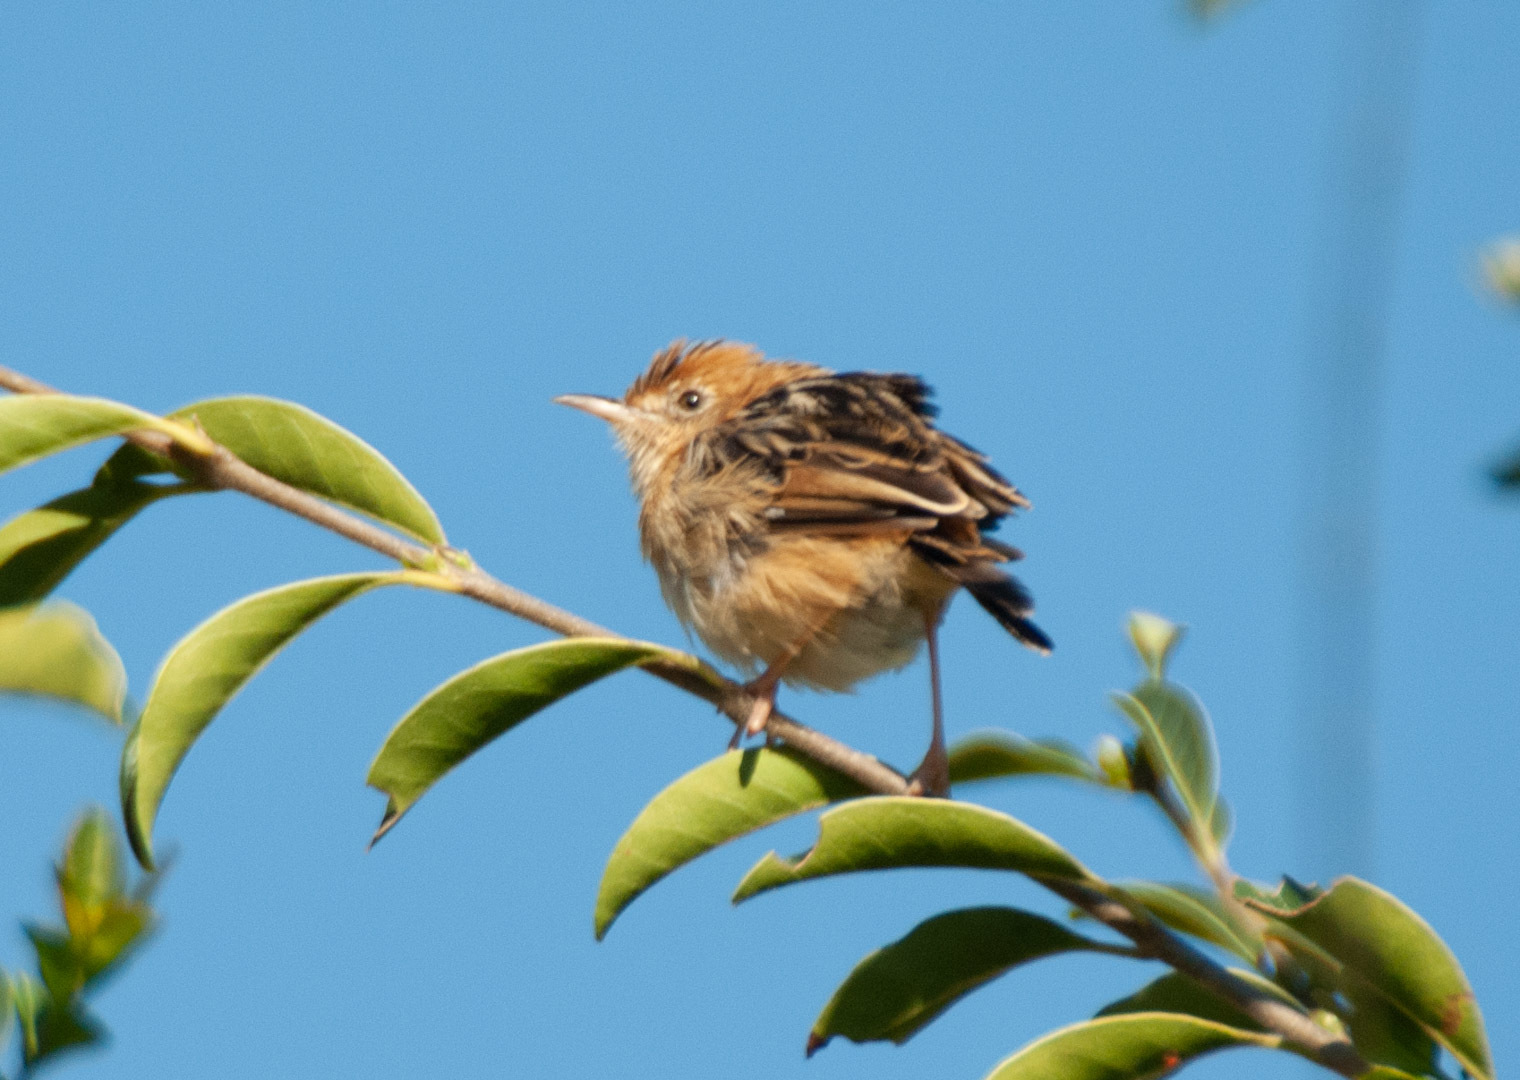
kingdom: Animalia
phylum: Chordata
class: Aves
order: Passeriformes
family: Cisticolidae
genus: Cisticola
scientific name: Cisticola exilis
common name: Golden-headed cisticola
